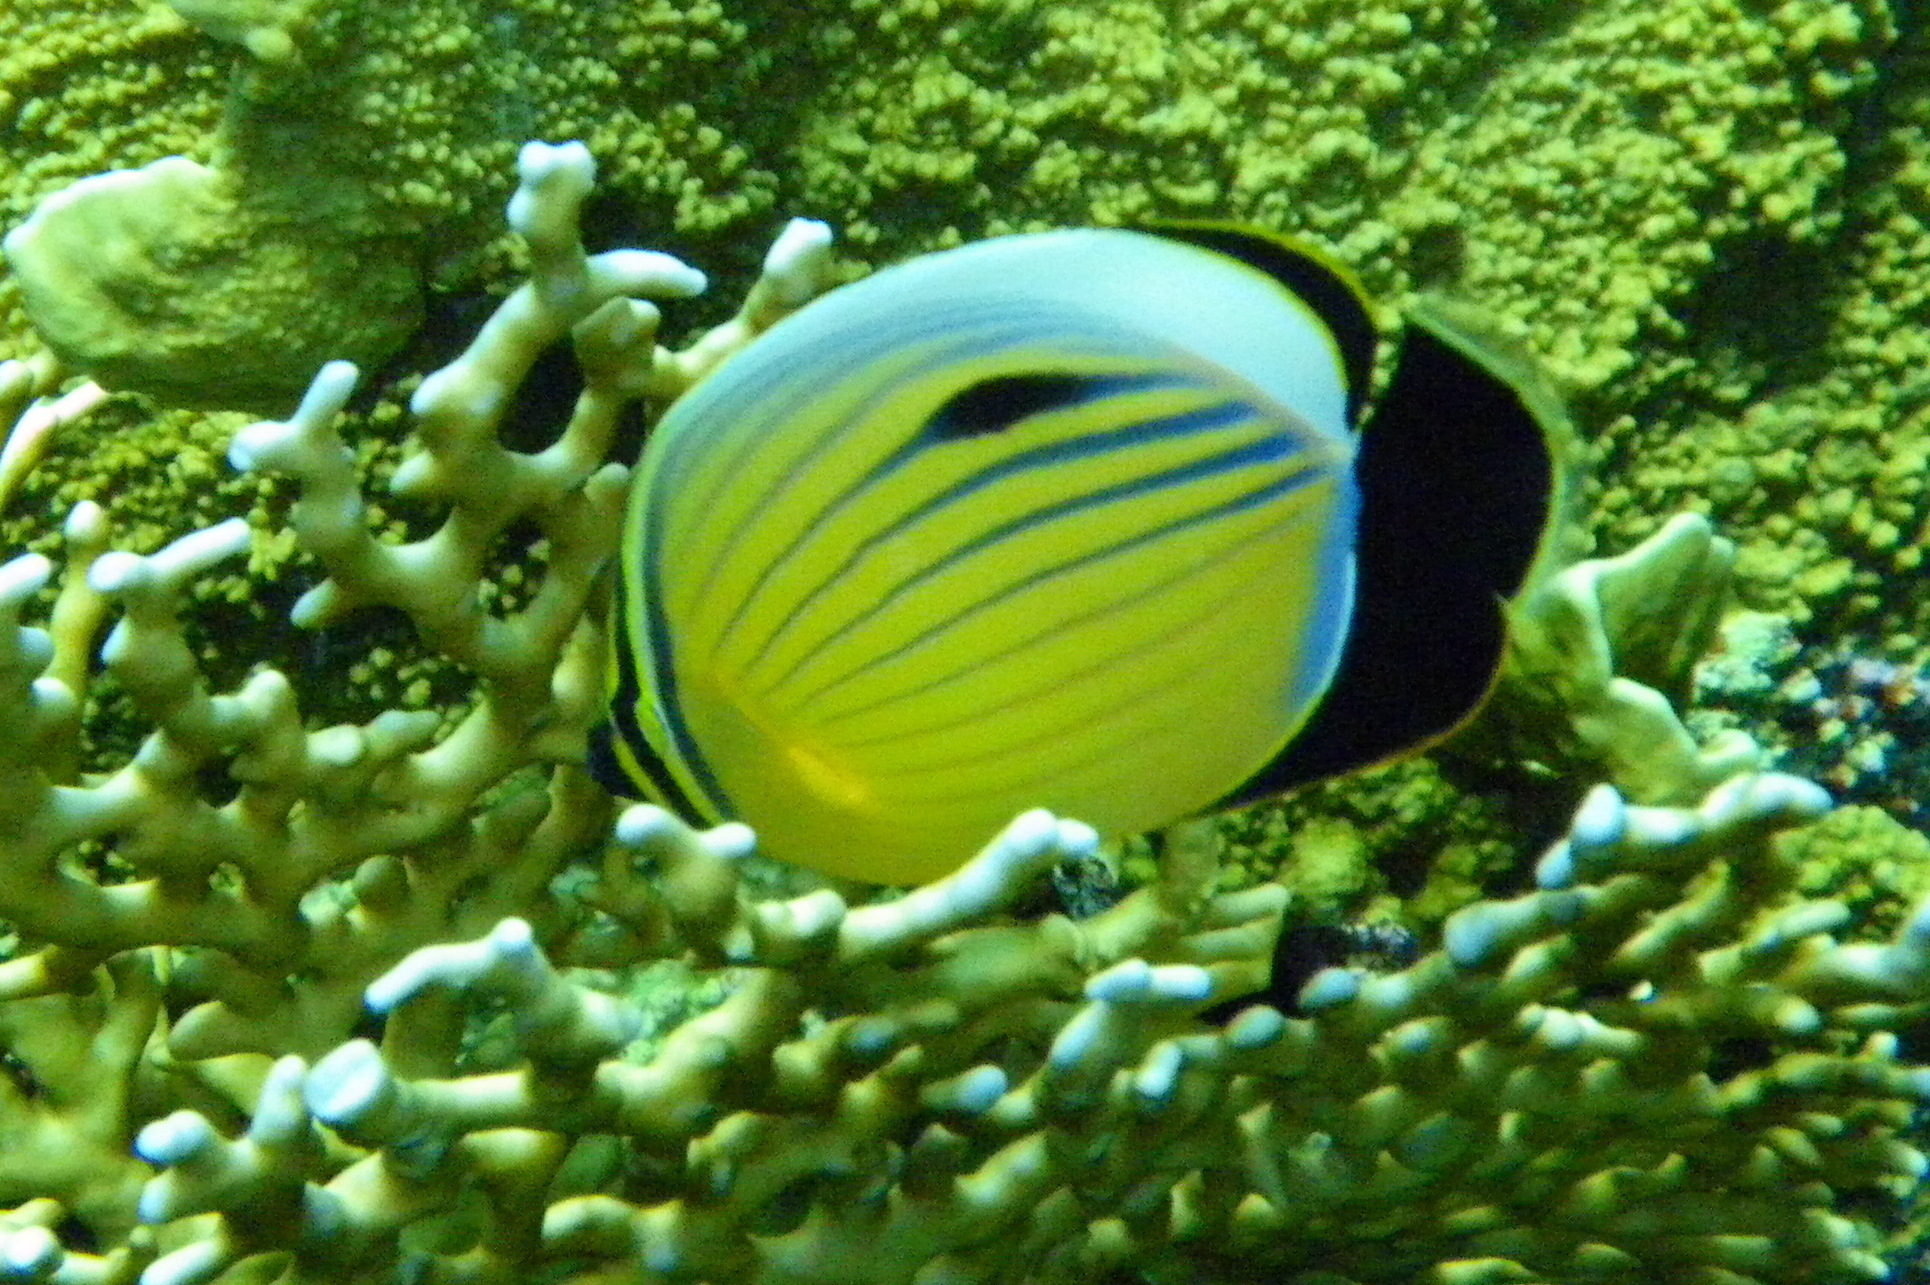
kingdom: Animalia
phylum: Chordata
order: Perciformes
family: Chaetodontidae
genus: Chaetodon
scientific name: Chaetodon austriacus
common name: Exquisite butterflyfish
